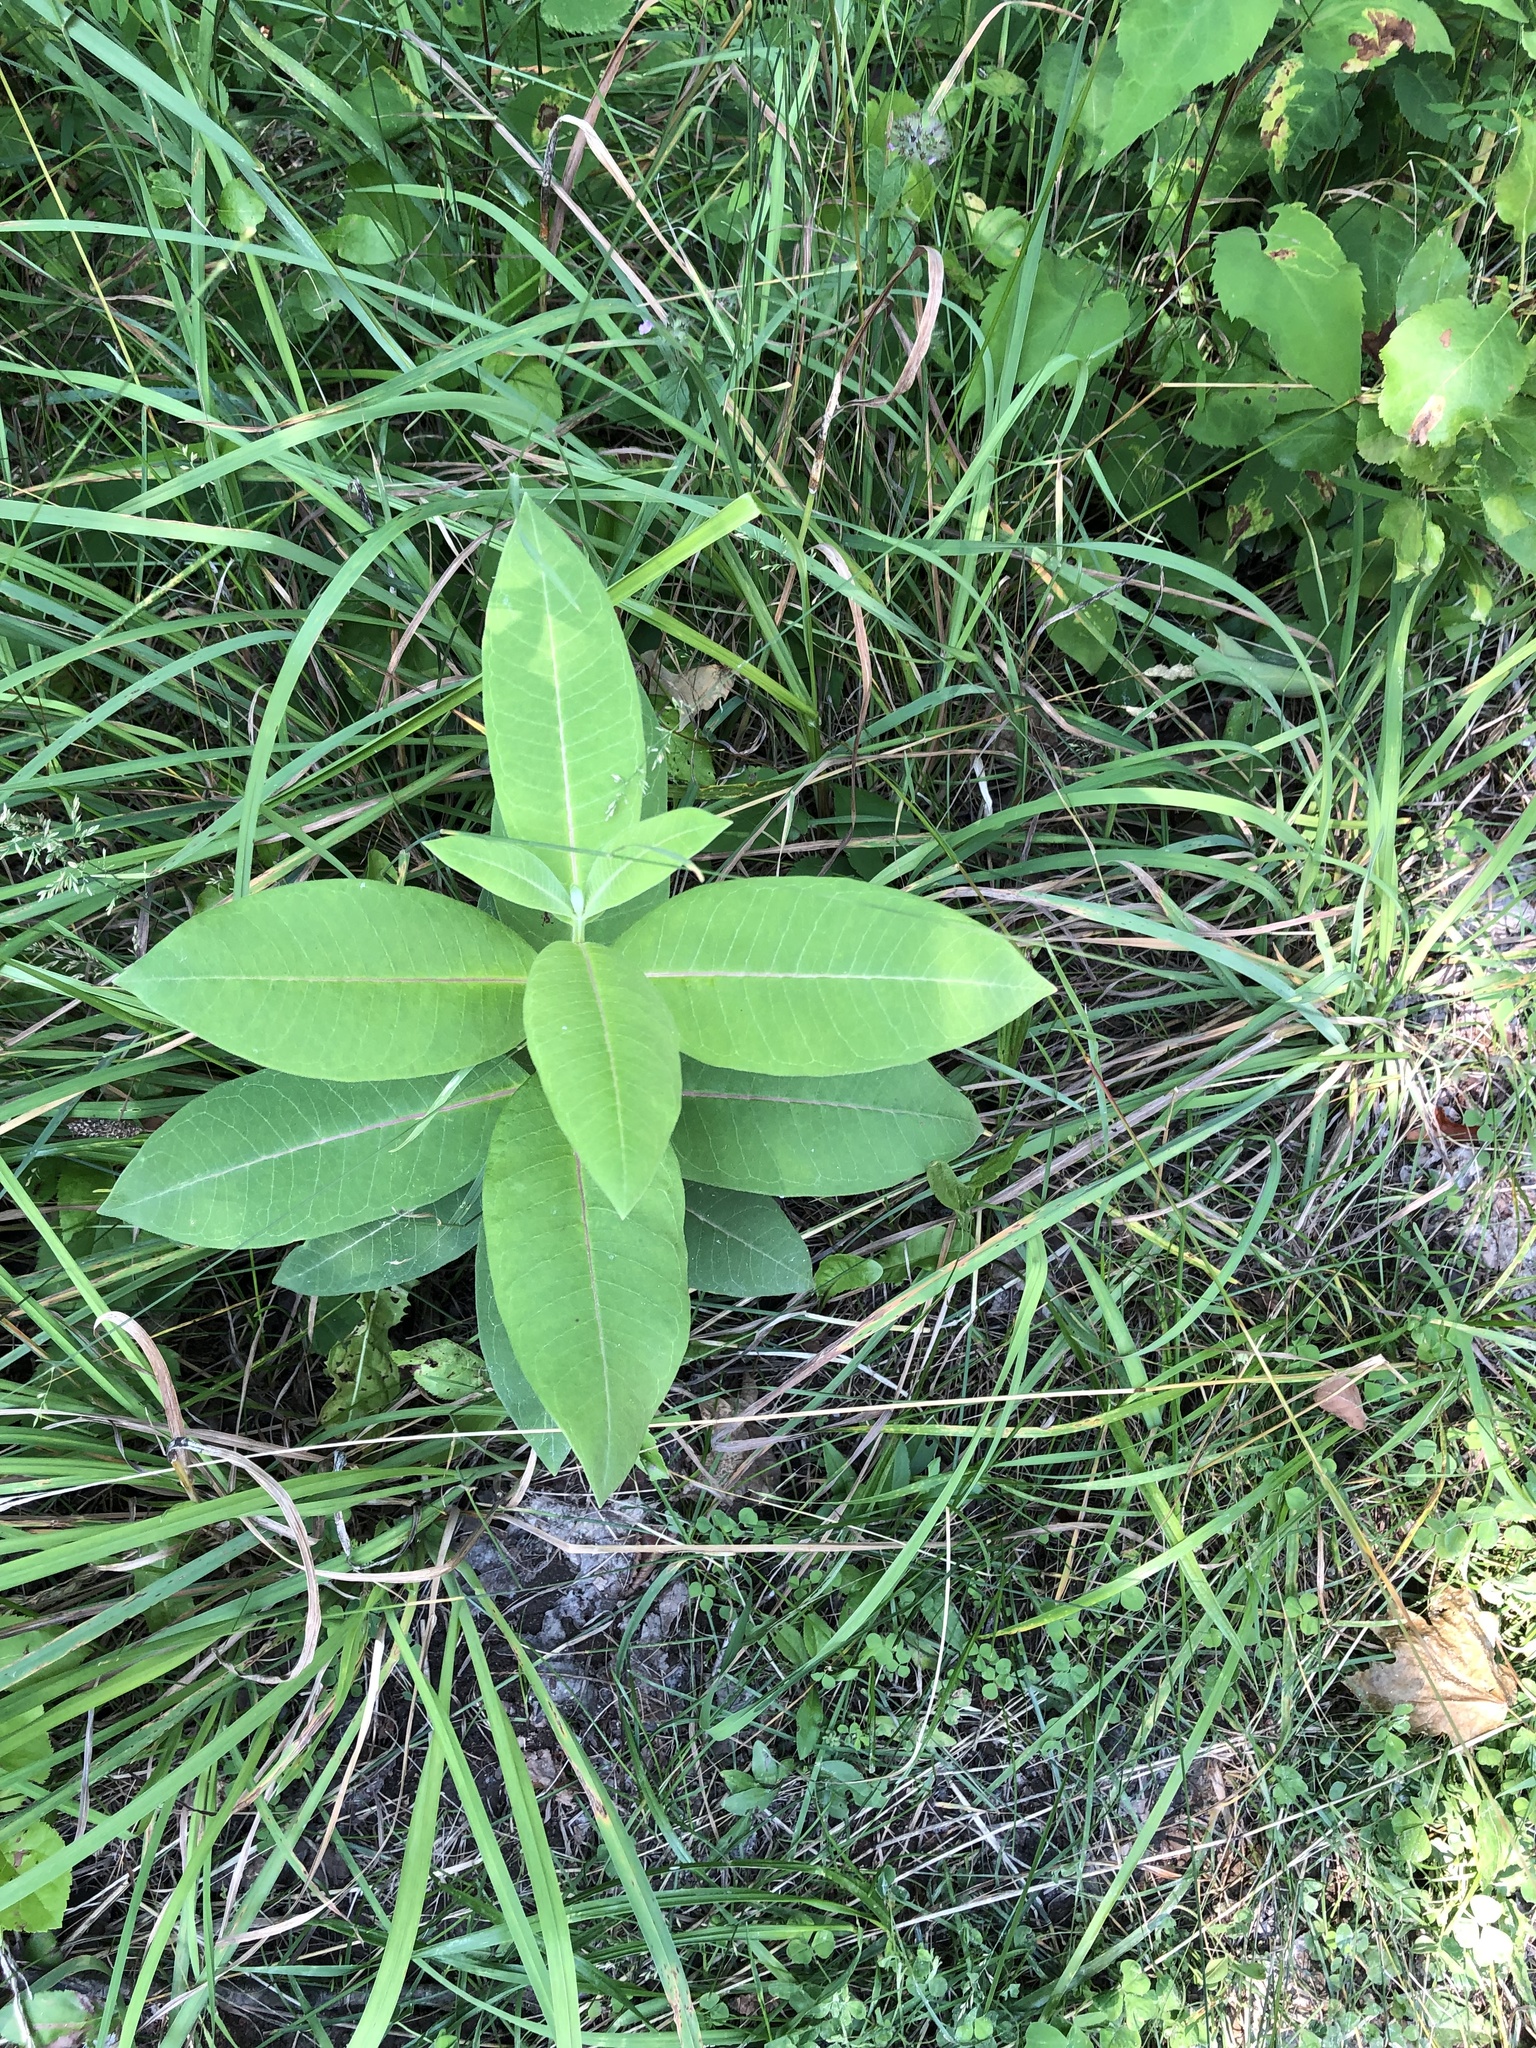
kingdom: Plantae
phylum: Tracheophyta
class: Magnoliopsida
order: Gentianales
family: Apocynaceae
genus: Asclepias
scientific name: Asclepias syriaca
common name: Common milkweed
